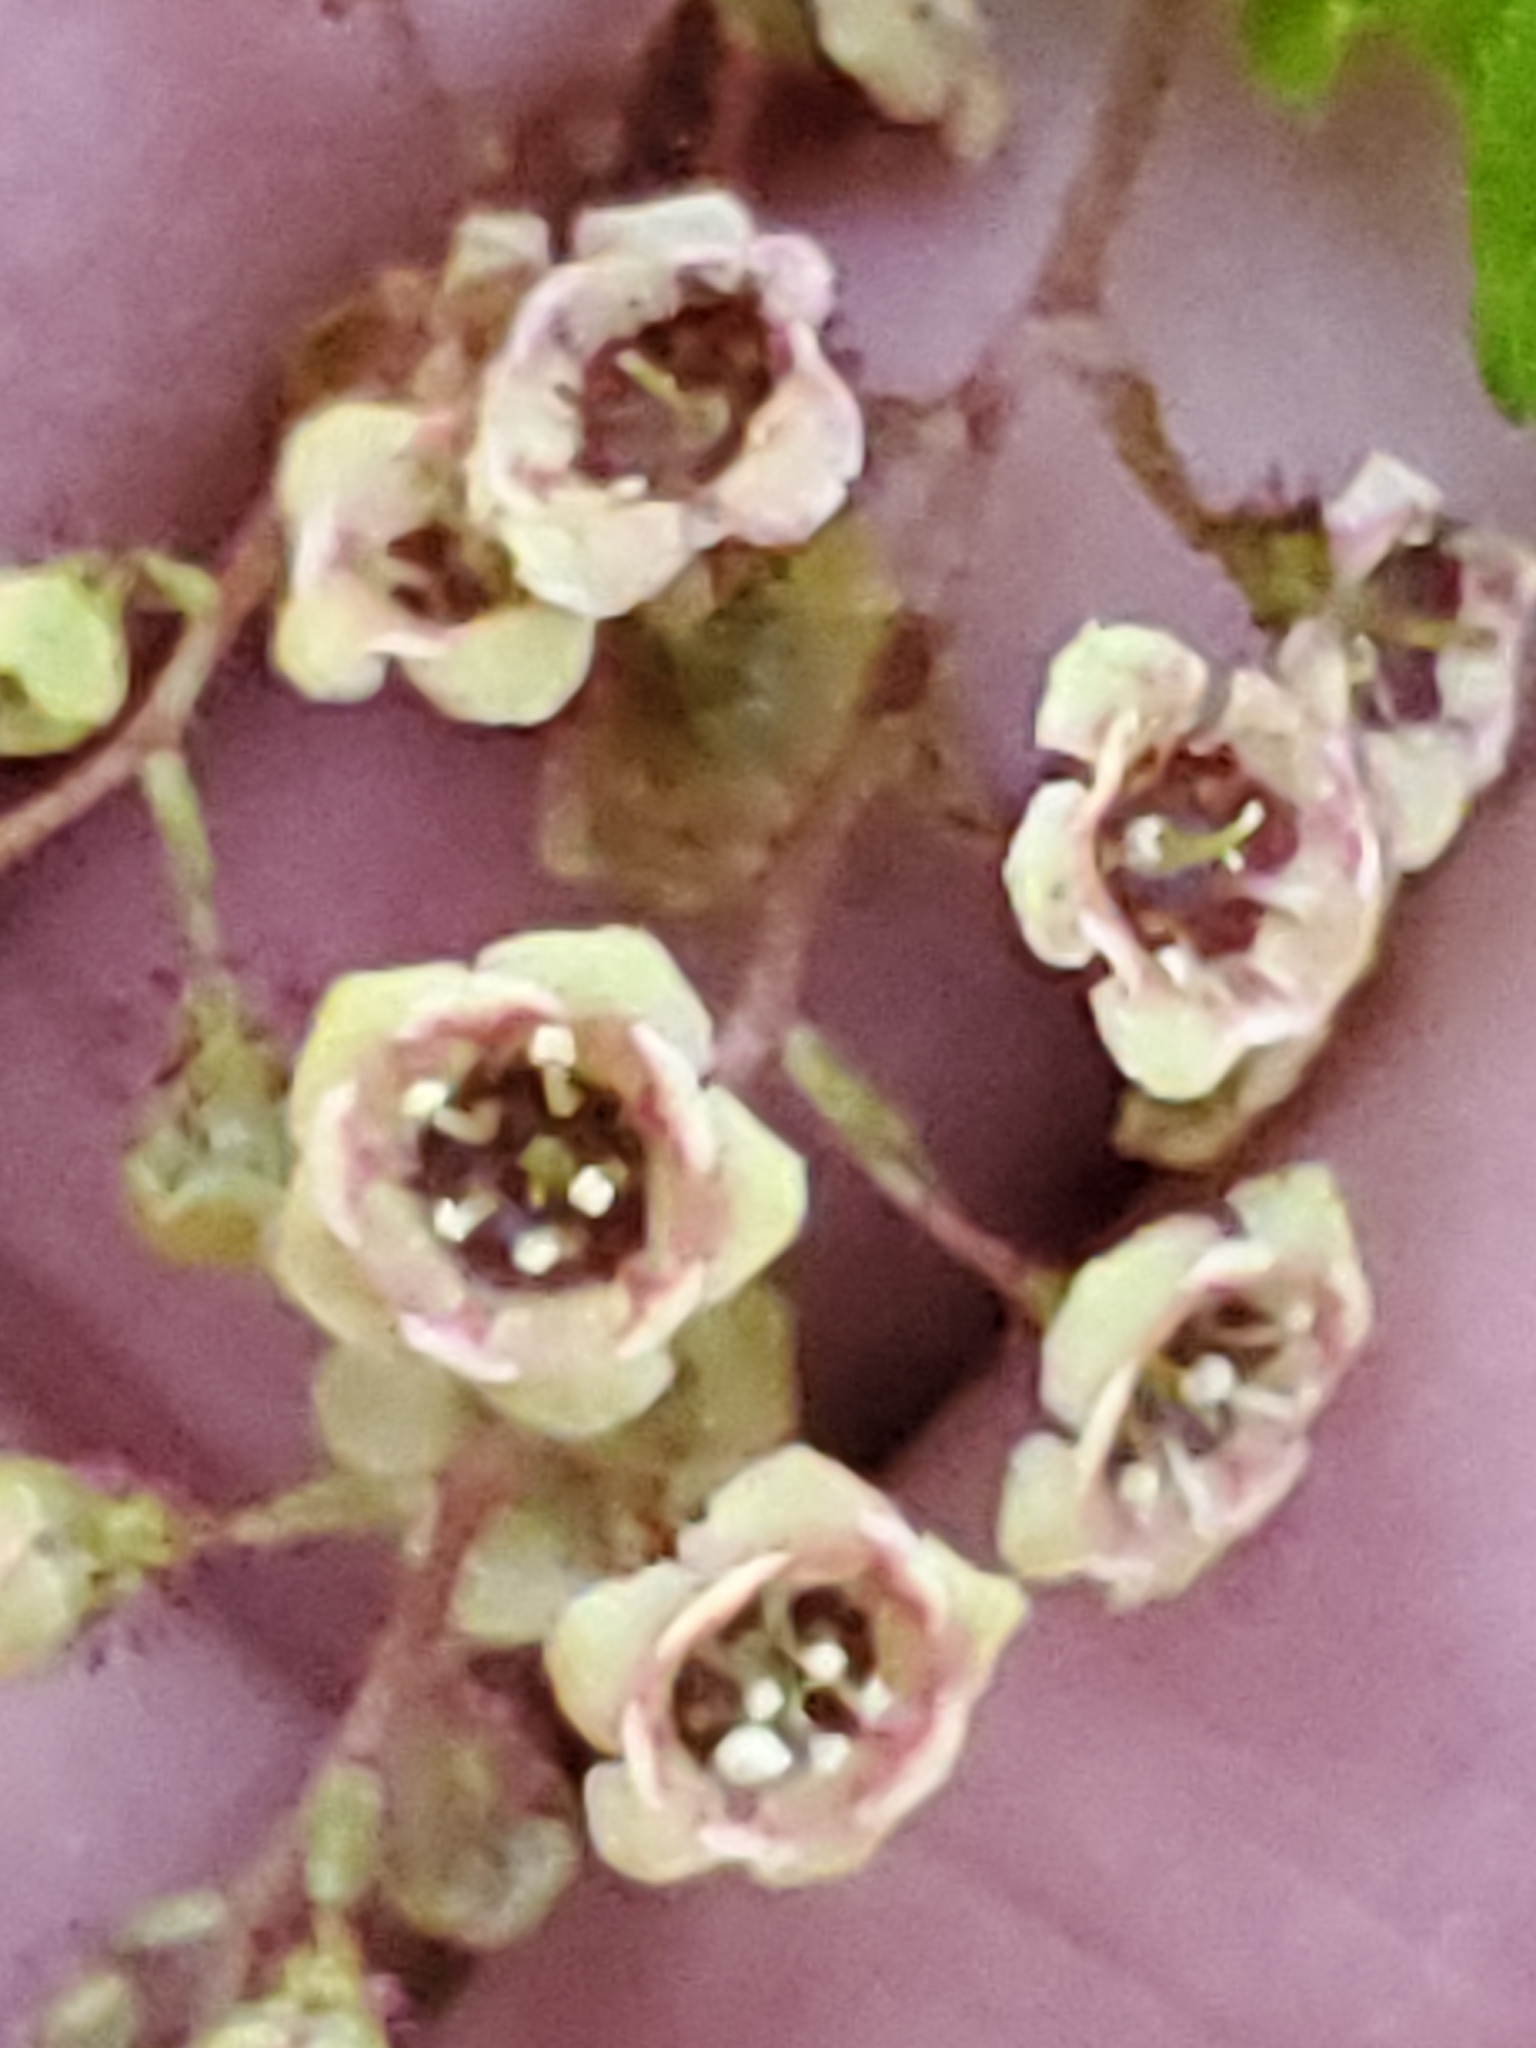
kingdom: Plantae
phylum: Tracheophyta
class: Magnoliopsida
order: Saxifragales
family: Grossulariaceae
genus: Ribes
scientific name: Ribes lacustre
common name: Black gooseberry
